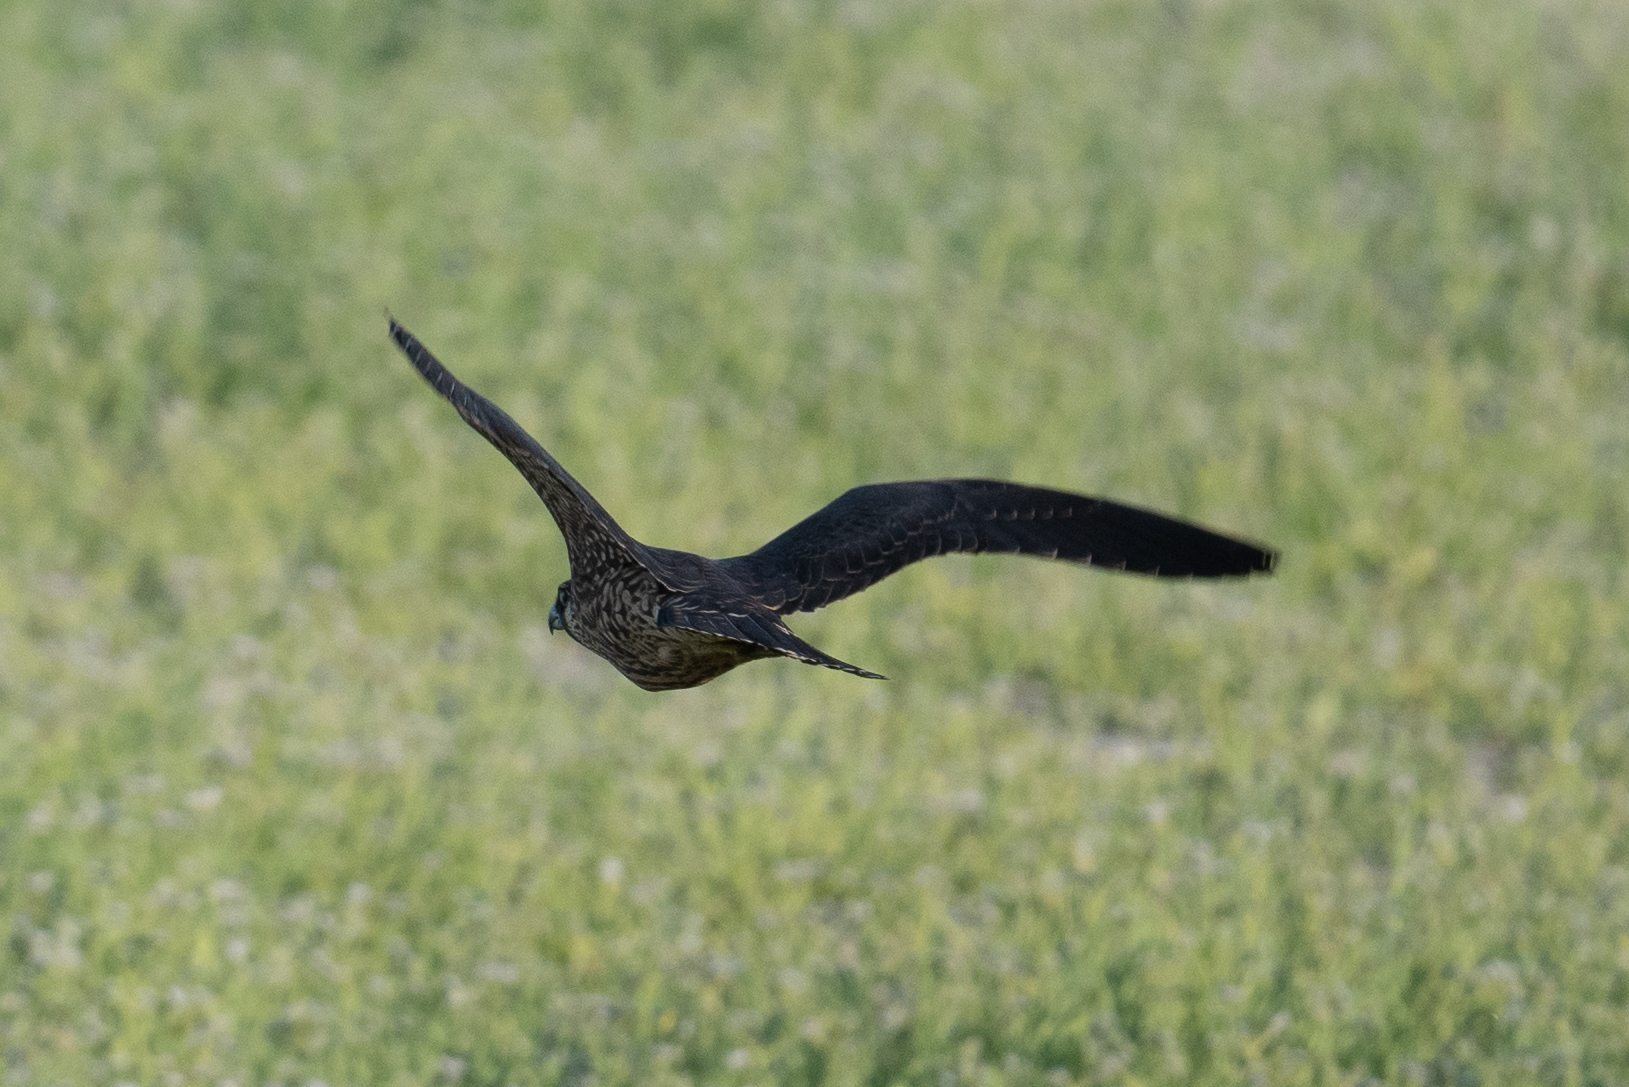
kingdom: Animalia
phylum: Chordata
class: Aves
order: Falconiformes
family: Falconidae
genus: Falco
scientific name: Falco peregrinus
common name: Peregrine falcon
